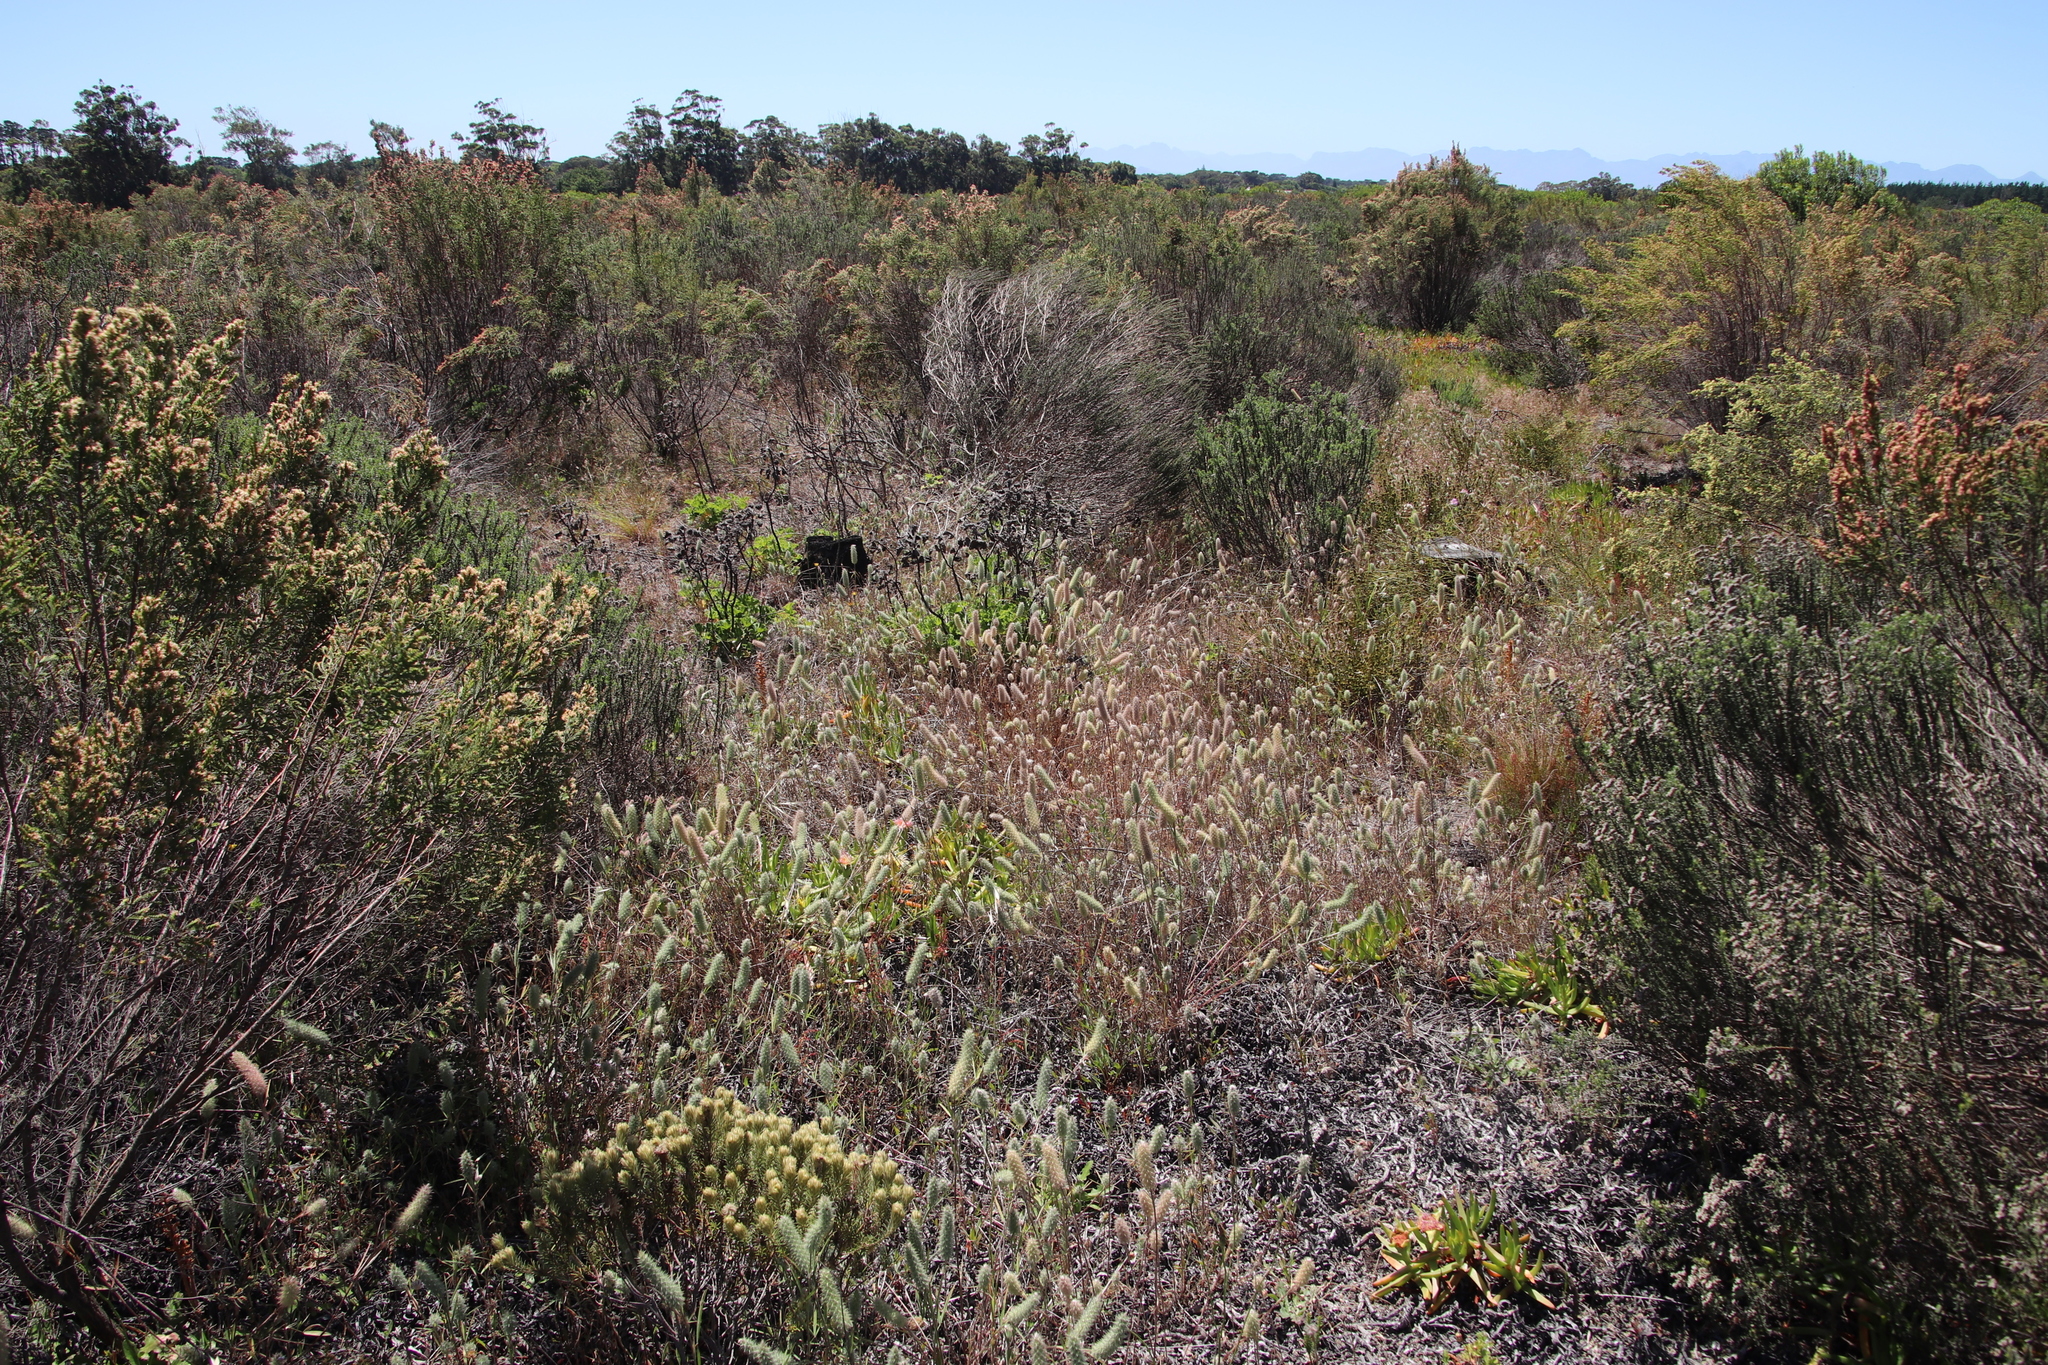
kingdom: Plantae
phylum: Tracheophyta
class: Magnoliopsida
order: Fabales
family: Fabaceae
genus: Trifolium
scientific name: Trifolium angustifolium
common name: Narrow clover
